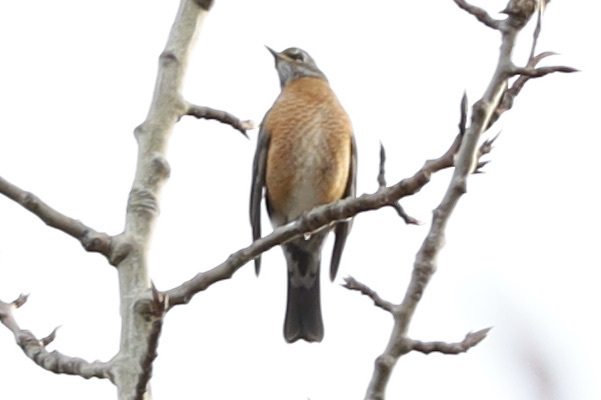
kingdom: Animalia
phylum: Chordata
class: Aves
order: Passeriformes
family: Turdidae
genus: Turdus
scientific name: Turdus migratorius
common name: American robin
